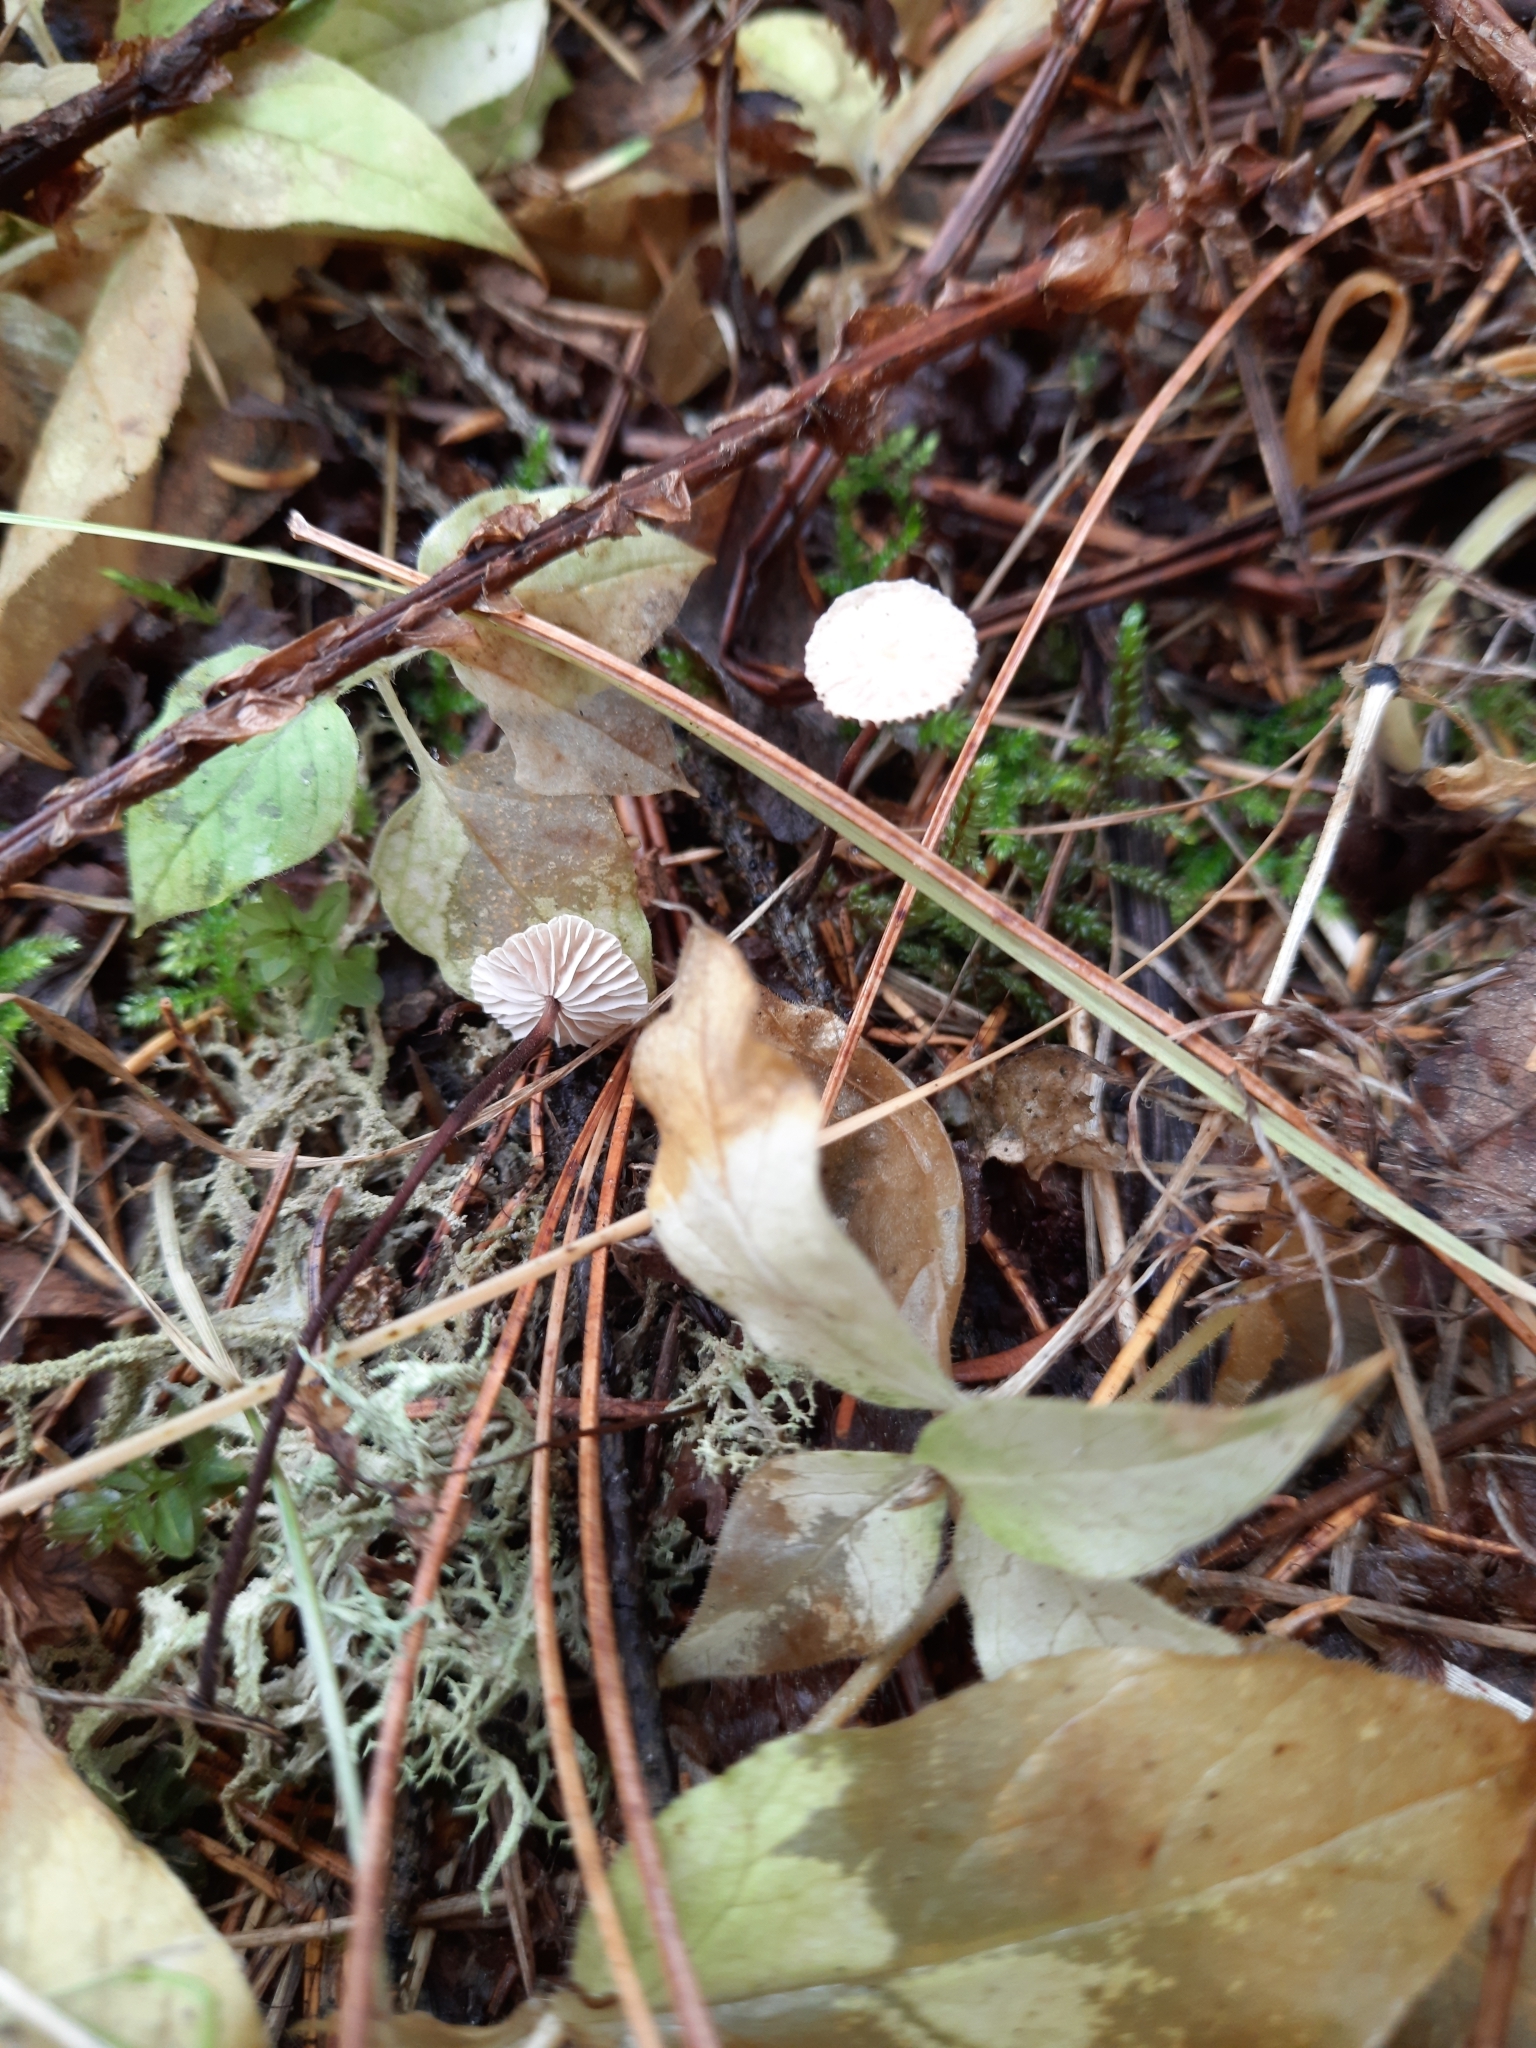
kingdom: Fungi
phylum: Basidiomycota
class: Agaricomycetes
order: Agaricales
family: Omphalotaceae
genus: Paragymnopus
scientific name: Paragymnopus perforans
